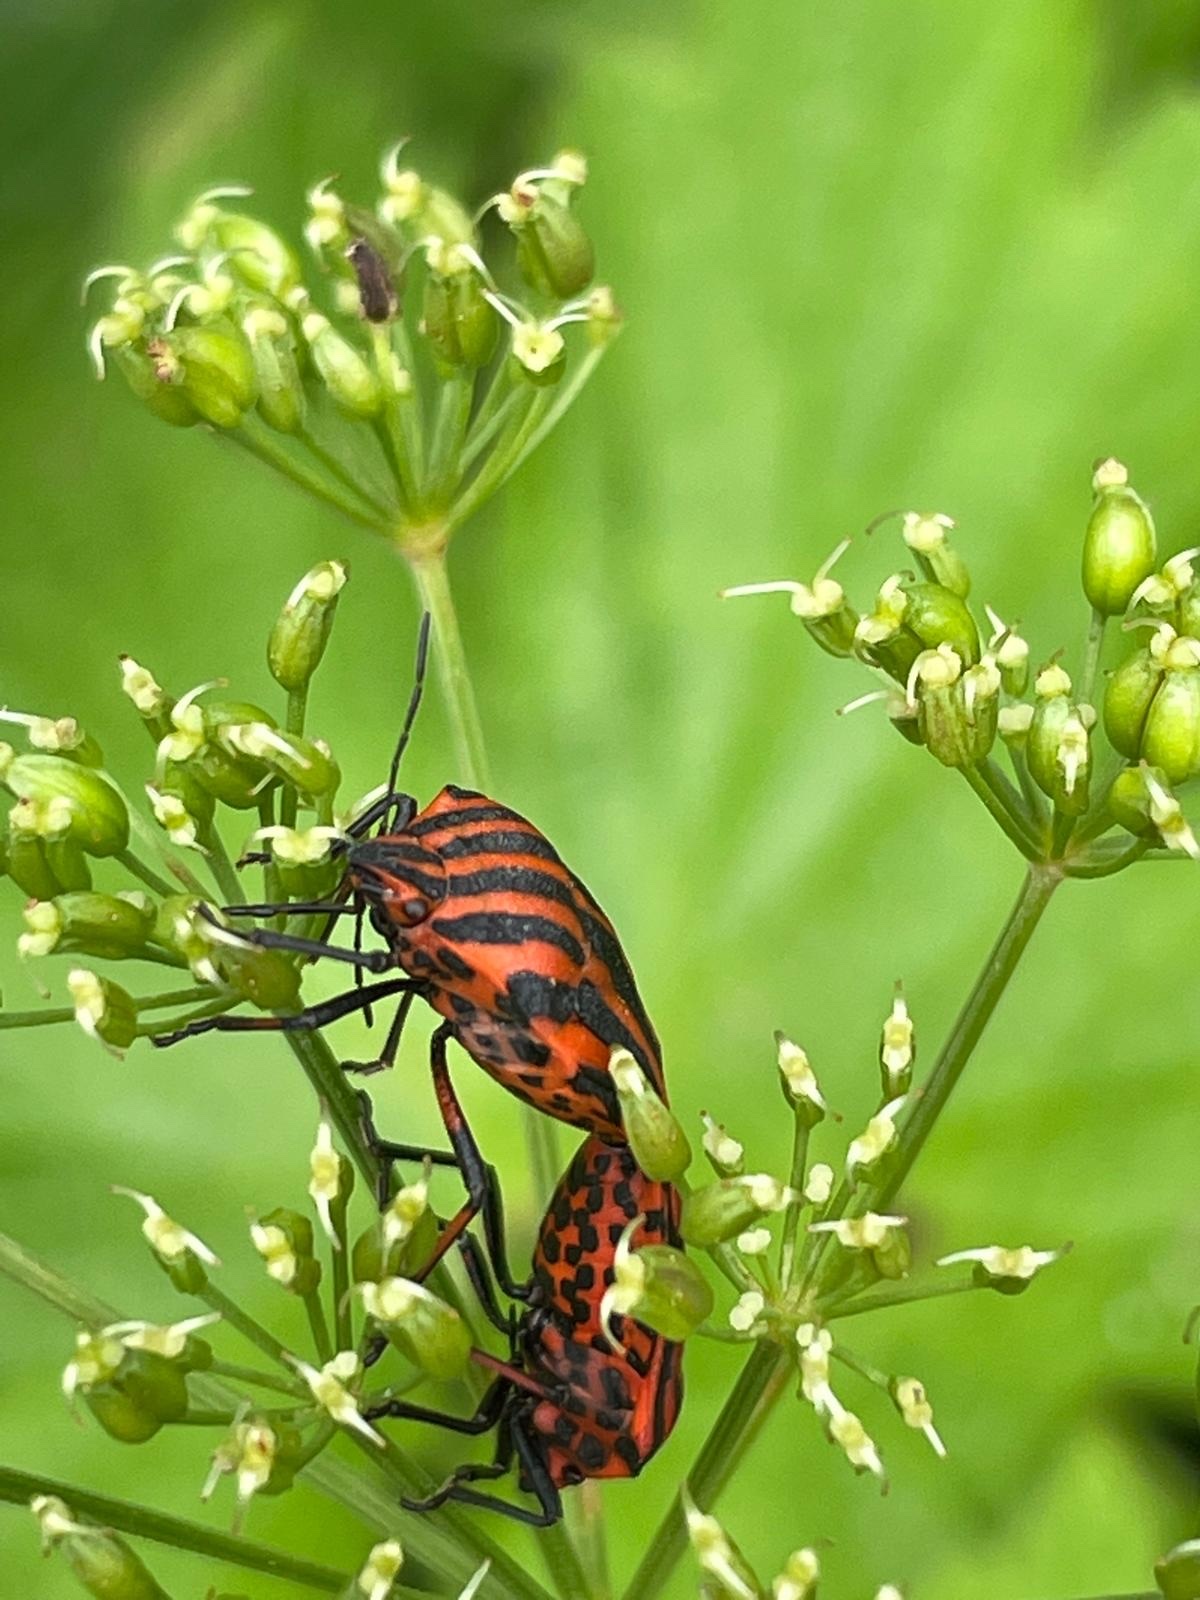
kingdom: Animalia
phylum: Arthropoda
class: Insecta
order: Hemiptera
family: Pentatomidae
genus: Graphosoma
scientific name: Graphosoma italicum
